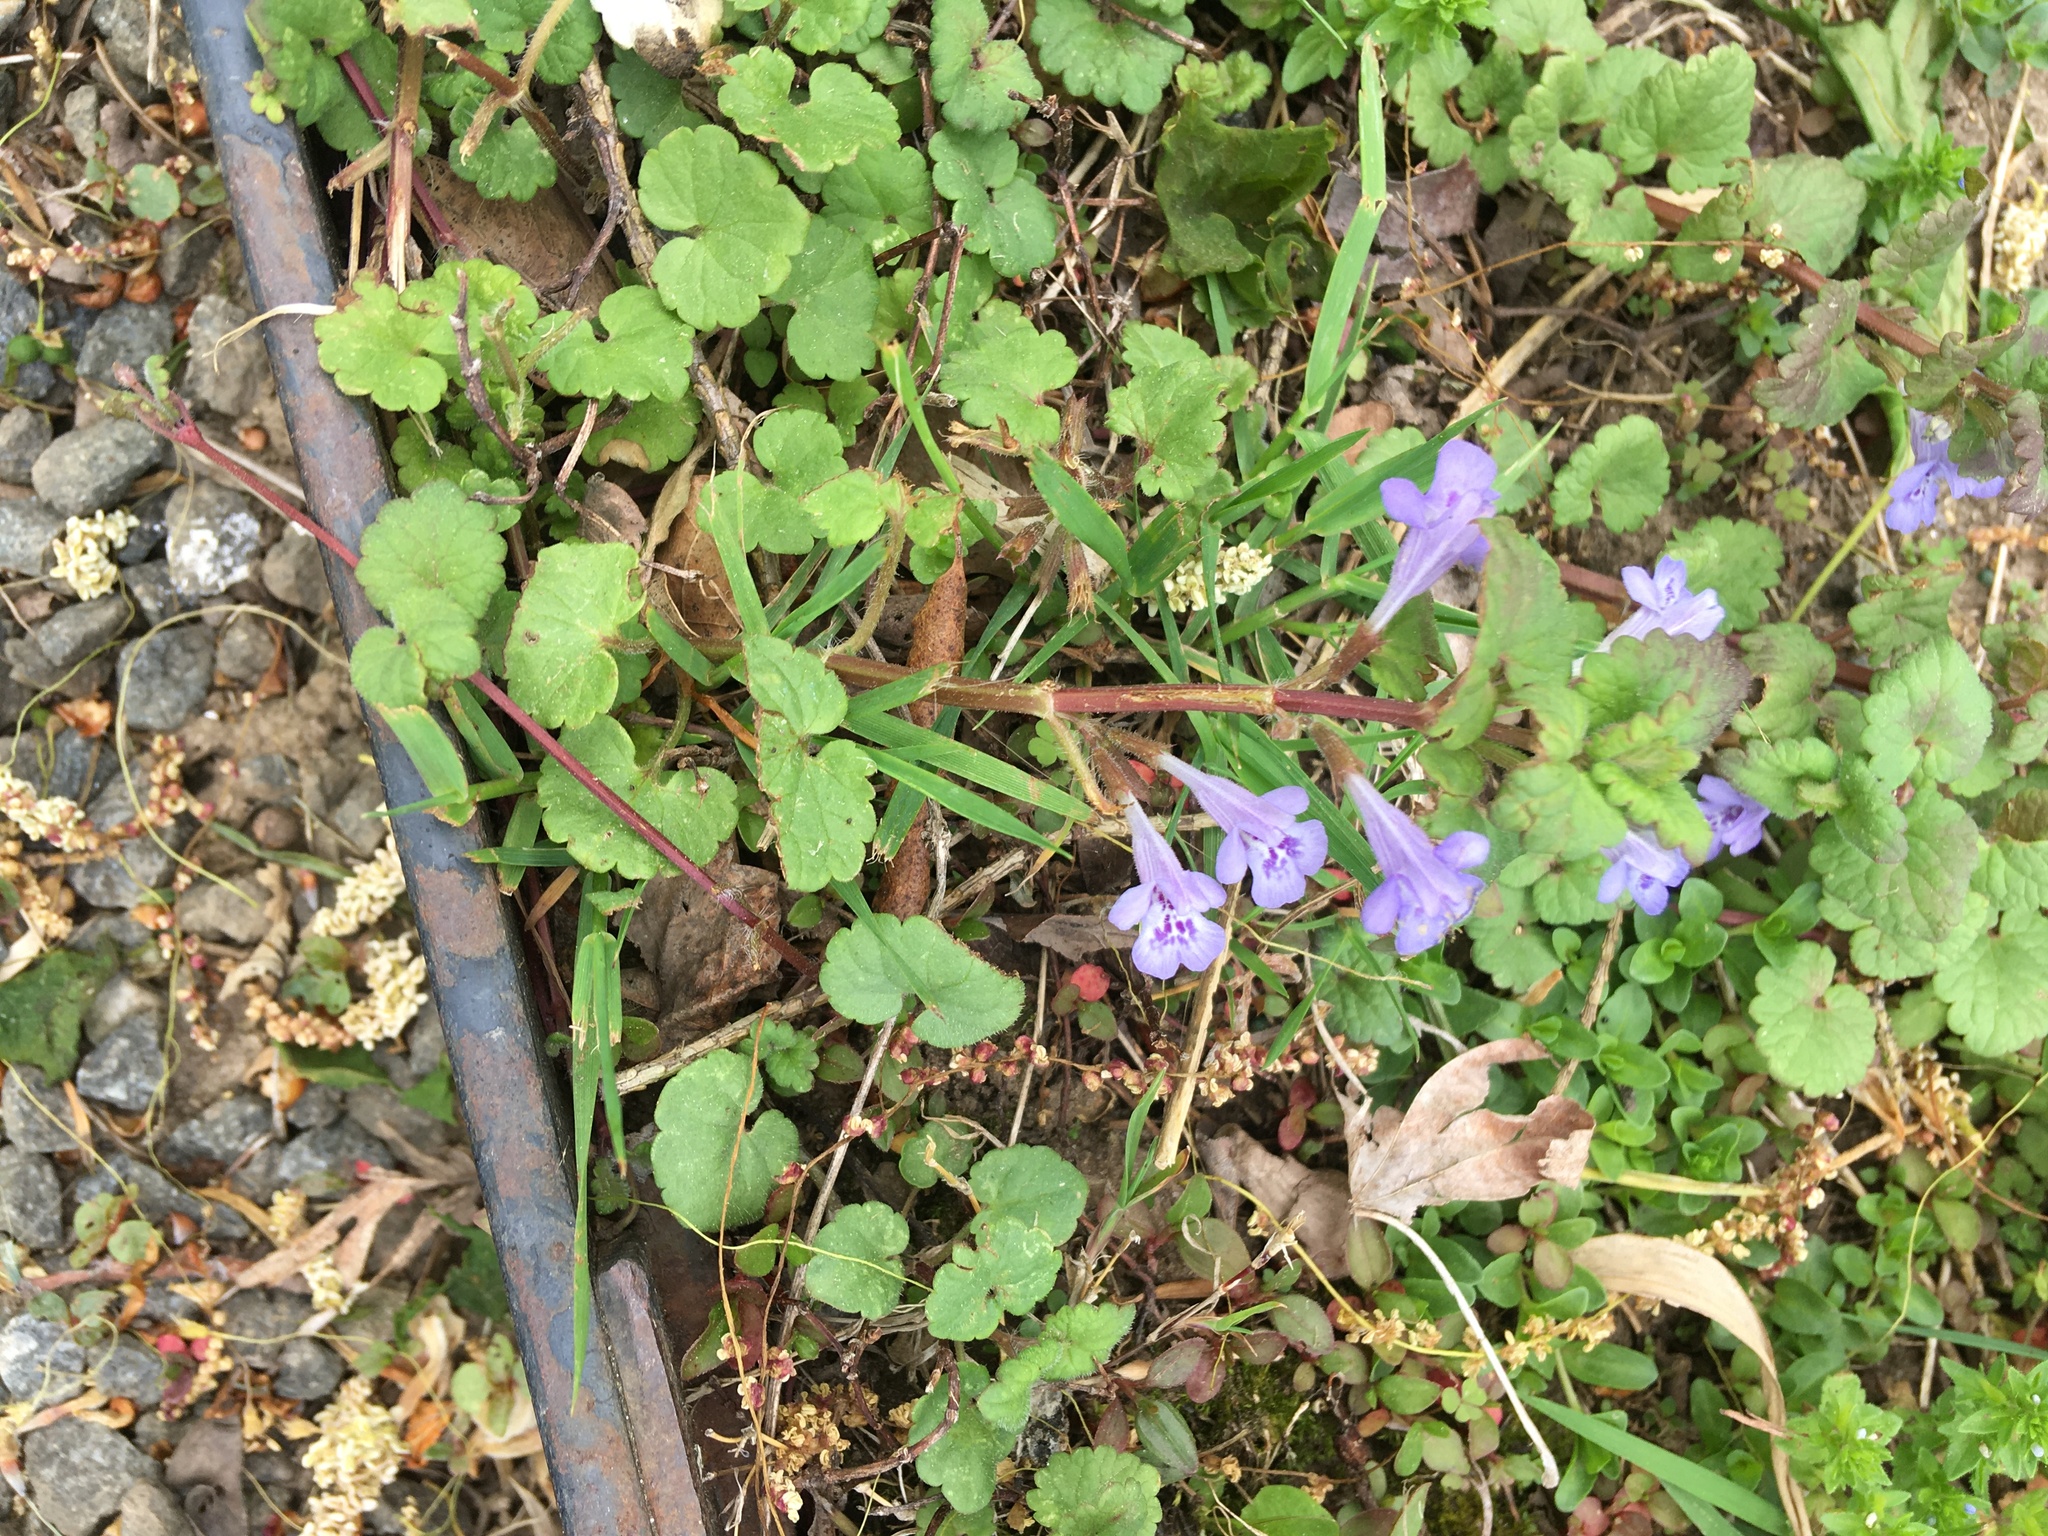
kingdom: Plantae
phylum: Tracheophyta
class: Magnoliopsida
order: Lamiales
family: Lamiaceae
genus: Glechoma
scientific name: Glechoma hederacea
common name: Ground ivy
